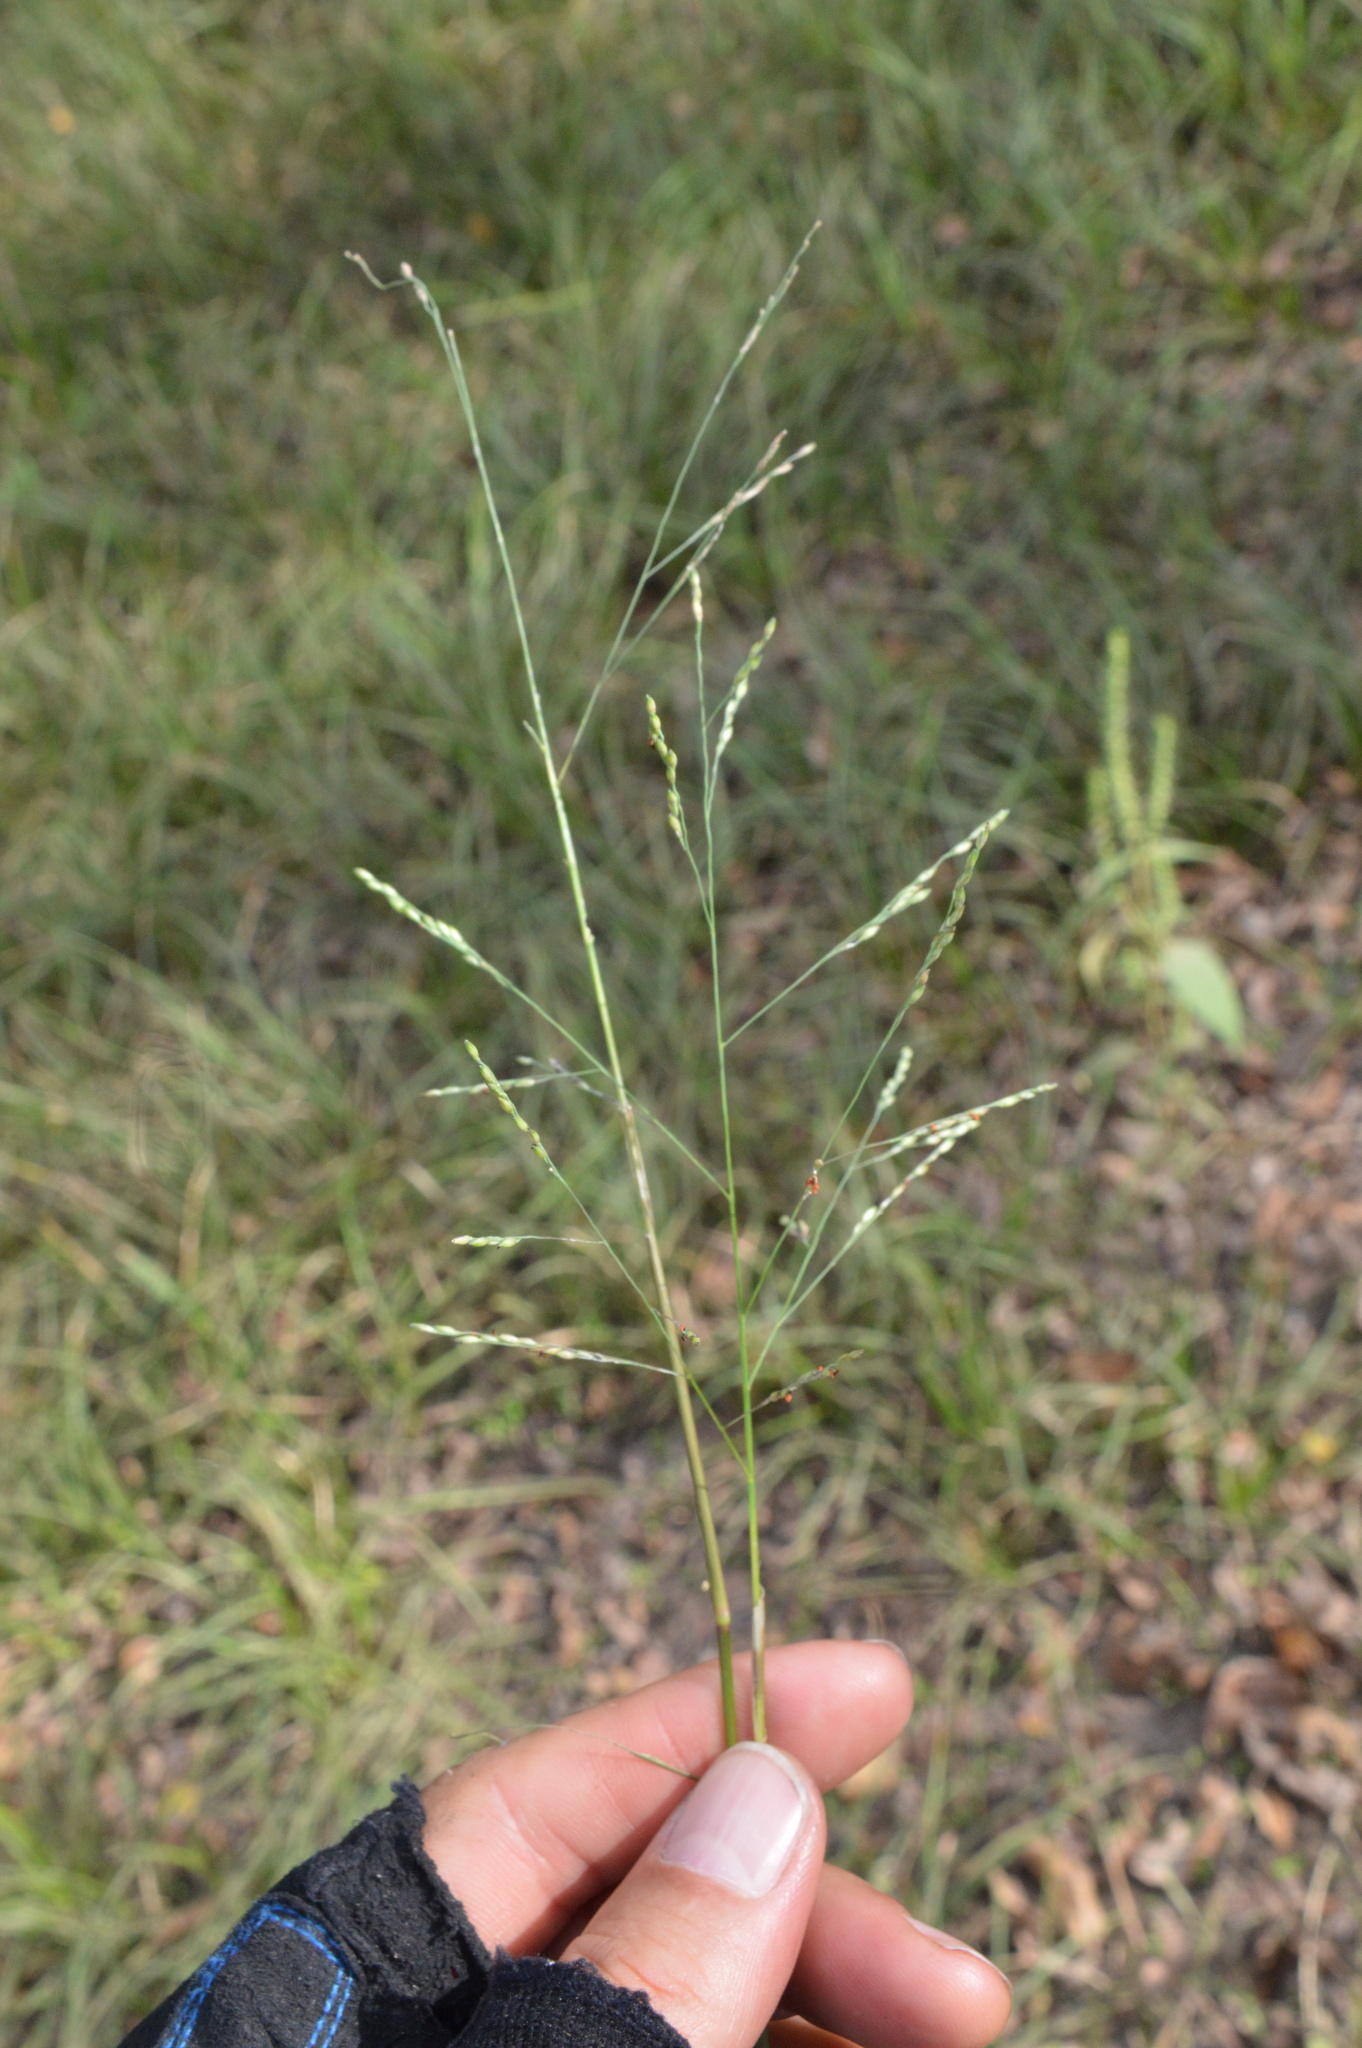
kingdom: Plantae
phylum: Tracheophyta
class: Liliopsida
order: Poales
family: Poaceae
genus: Panicum
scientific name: Panicum dichotomiflorum
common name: Autumn millet
